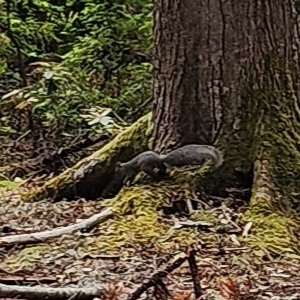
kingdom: Animalia
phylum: Chordata
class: Mammalia
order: Rodentia
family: Sciuridae
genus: Sciurus
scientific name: Sciurus griseus
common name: Western gray squirrel
